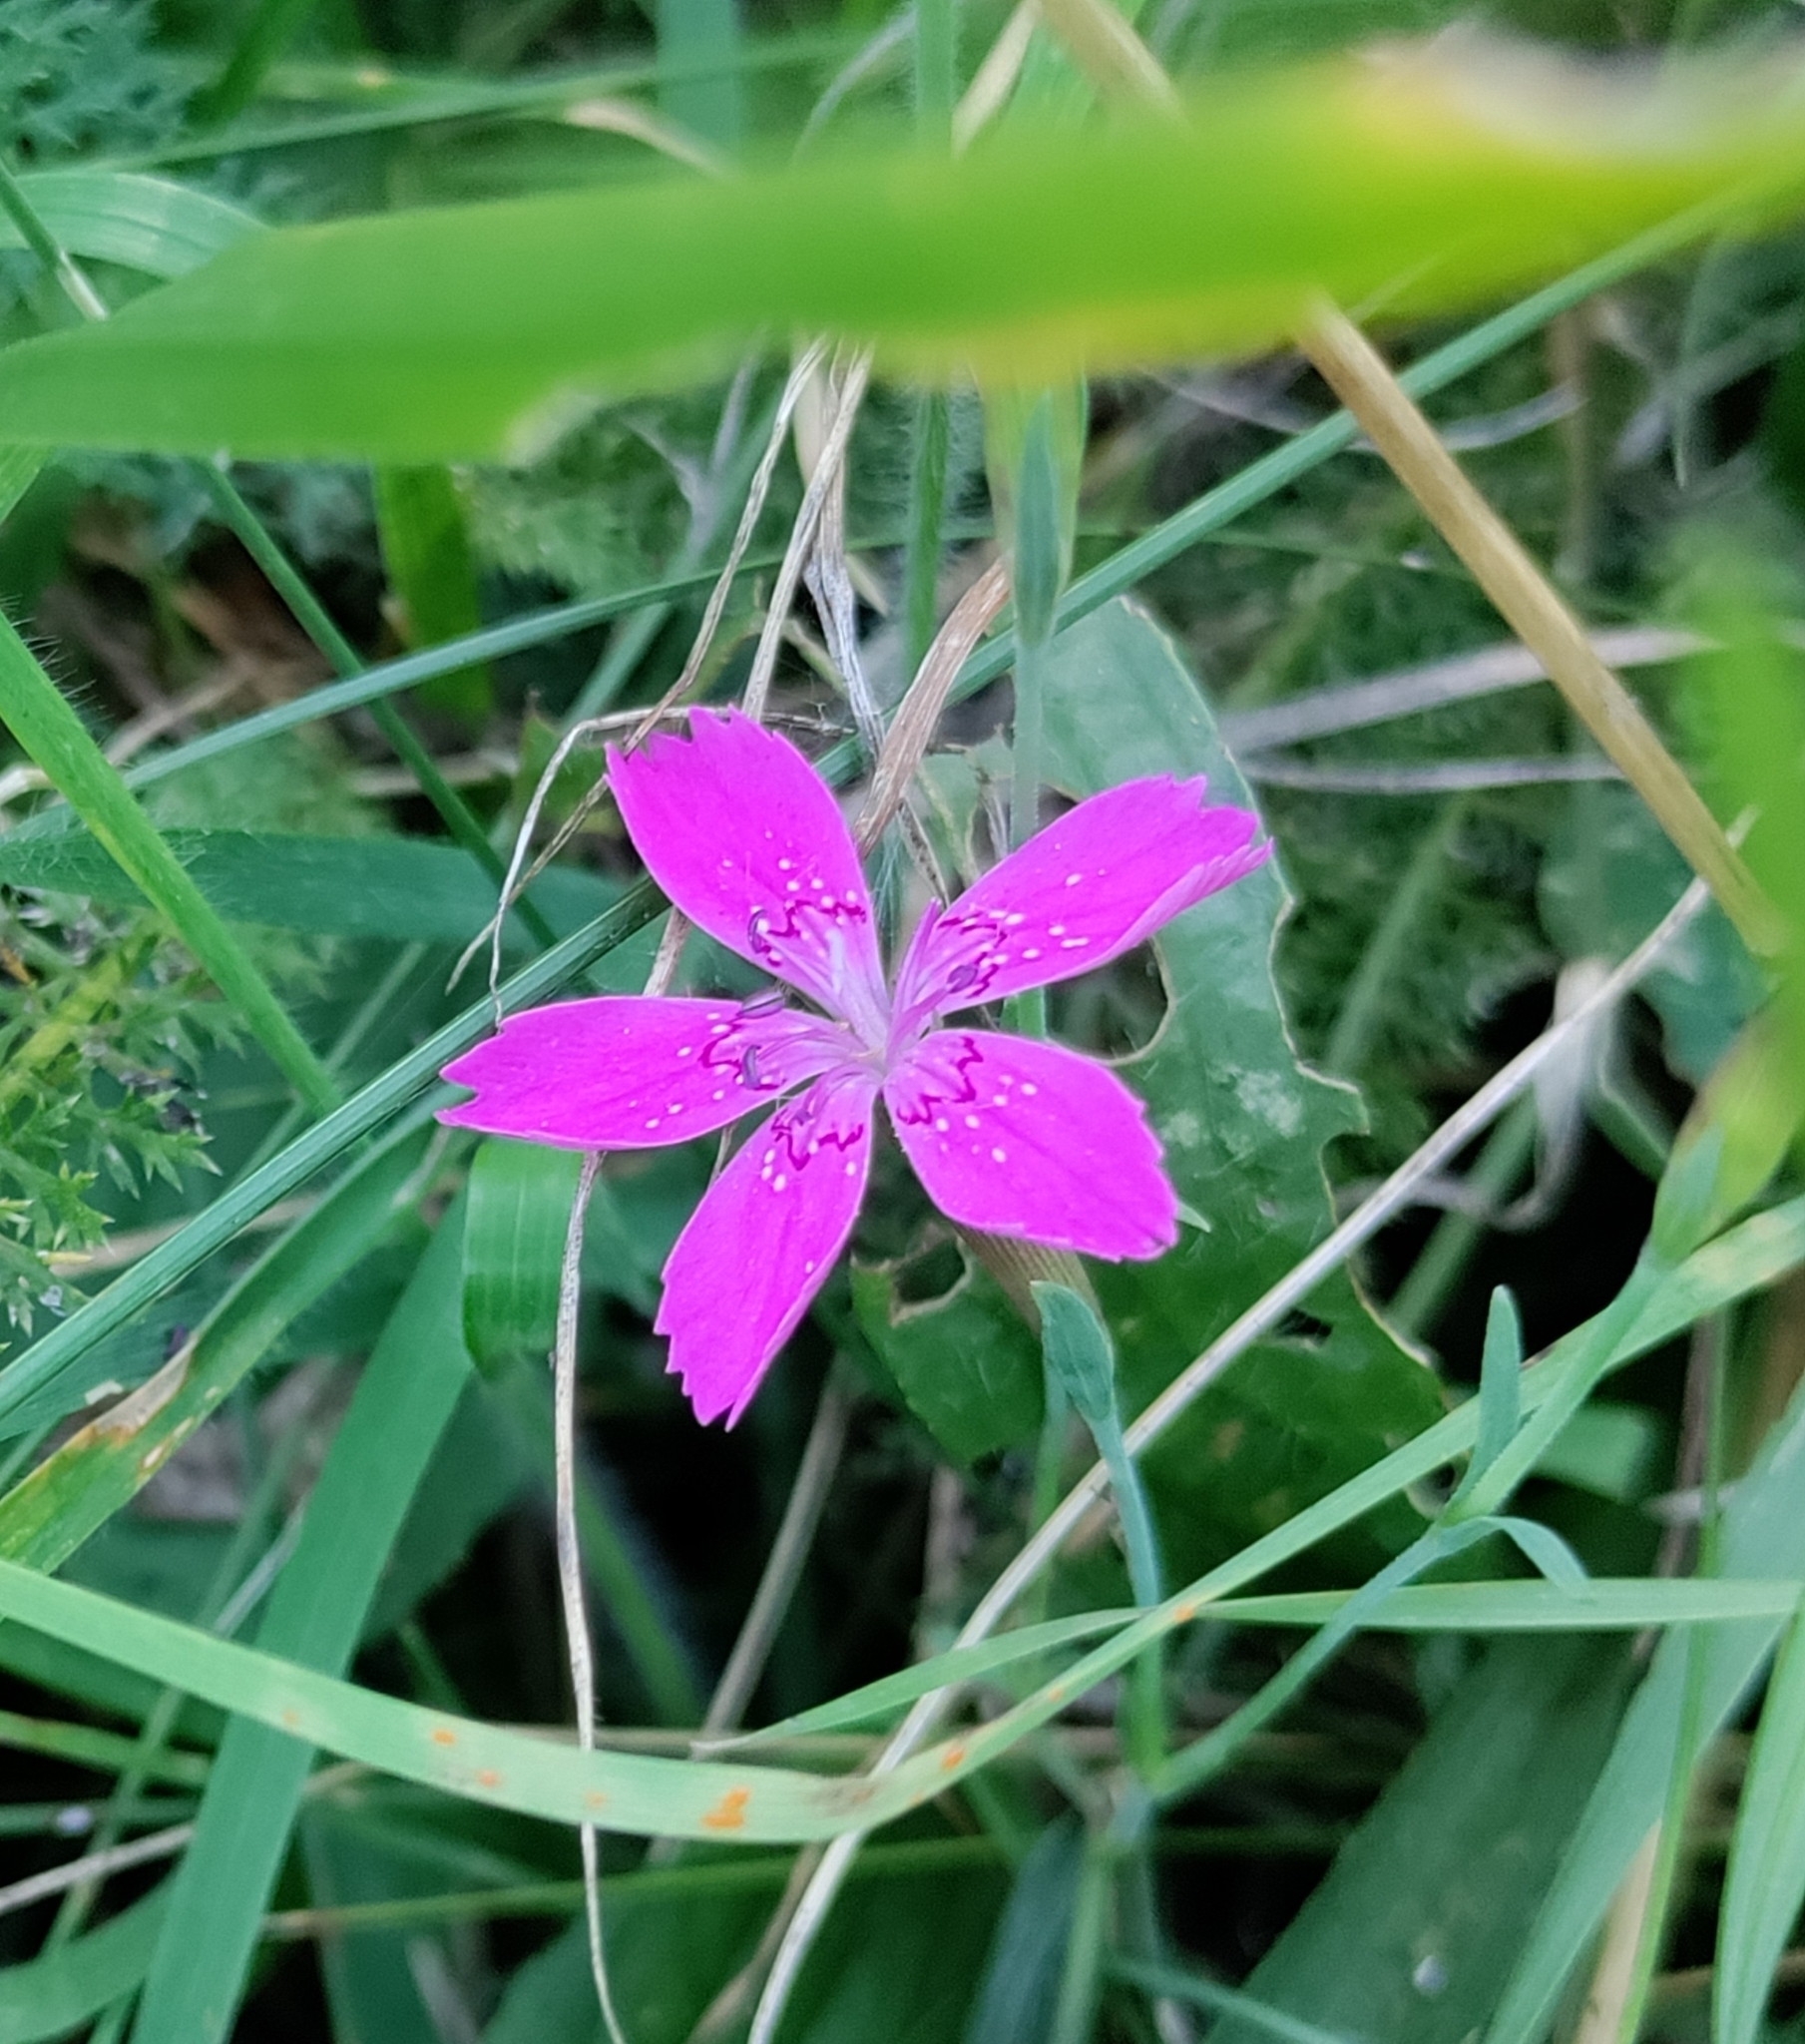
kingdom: Plantae
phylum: Tracheophyta
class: Magnoliopsida
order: Caryophyllales
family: Caryophyllaceae
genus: Dianthus
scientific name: Dianthus deltoides
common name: Maiden pink
